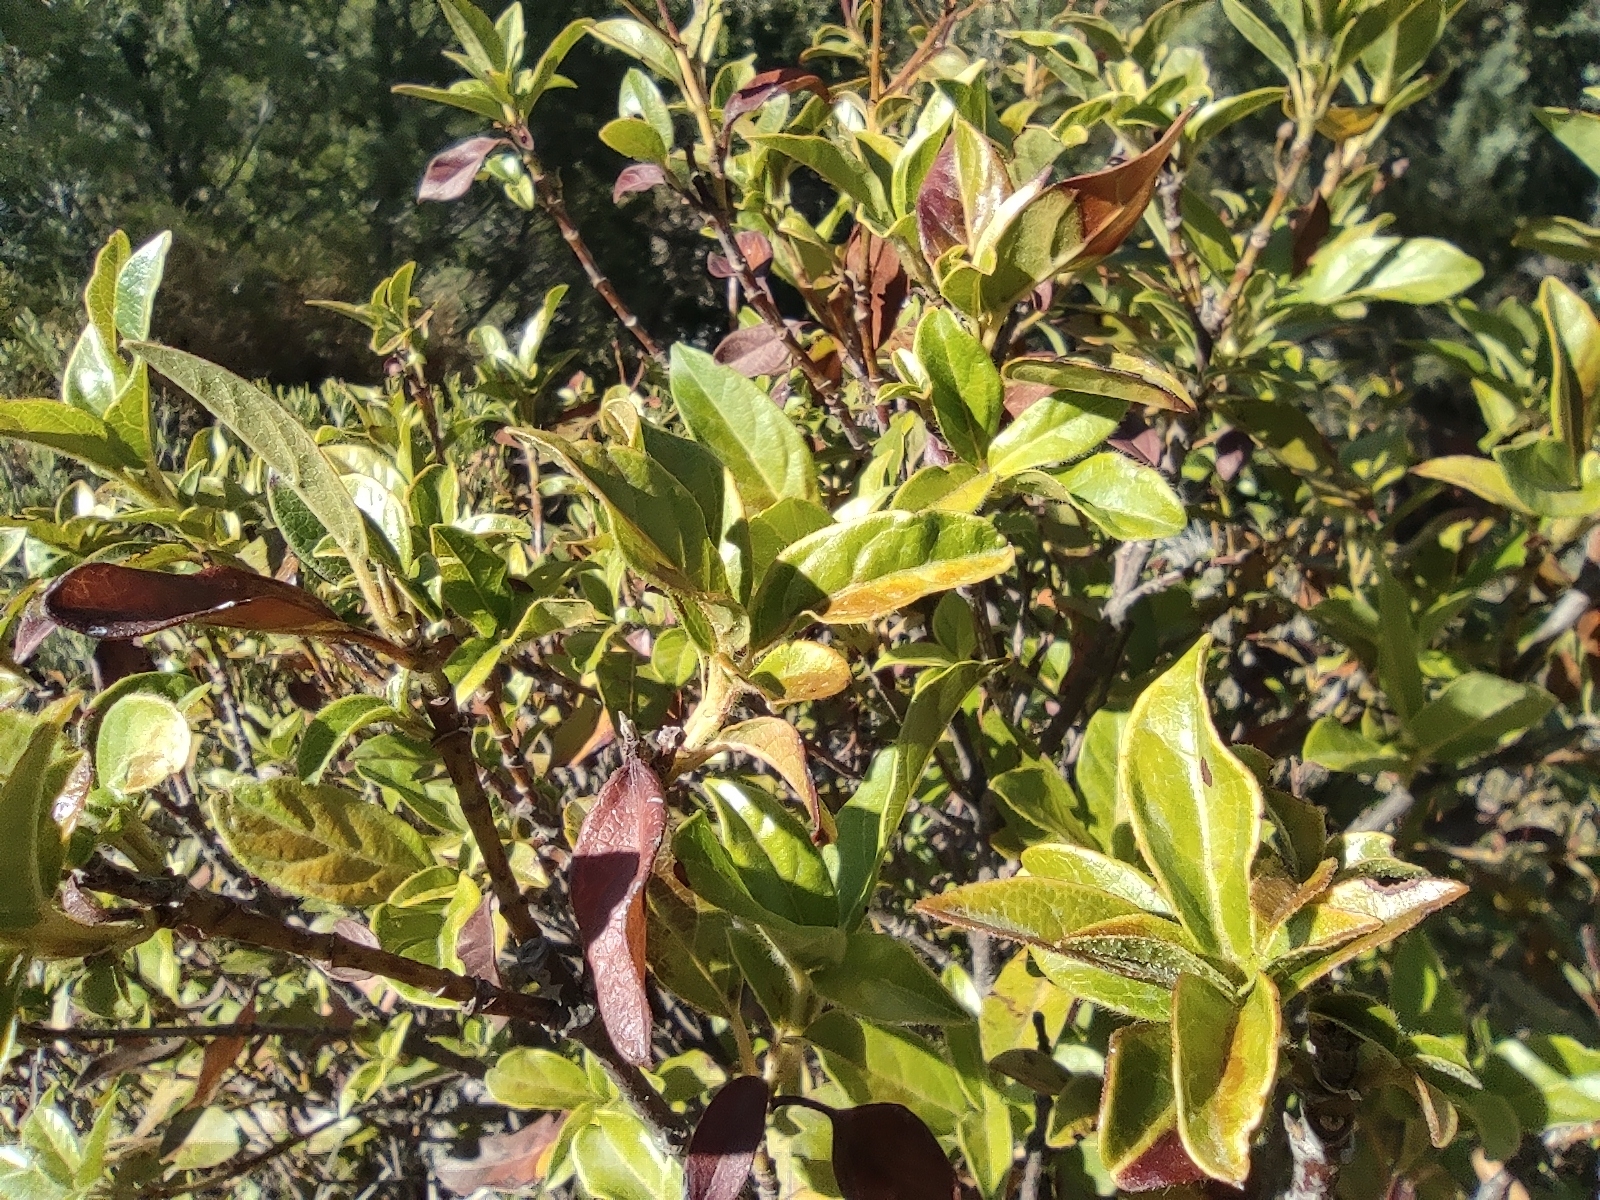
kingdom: Plantae
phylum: Tracheophyta
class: Magnoliopsida
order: Dipsacales
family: Viburnaceae
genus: Viburnum
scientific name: Viburnum tinus
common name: Laurustinus
